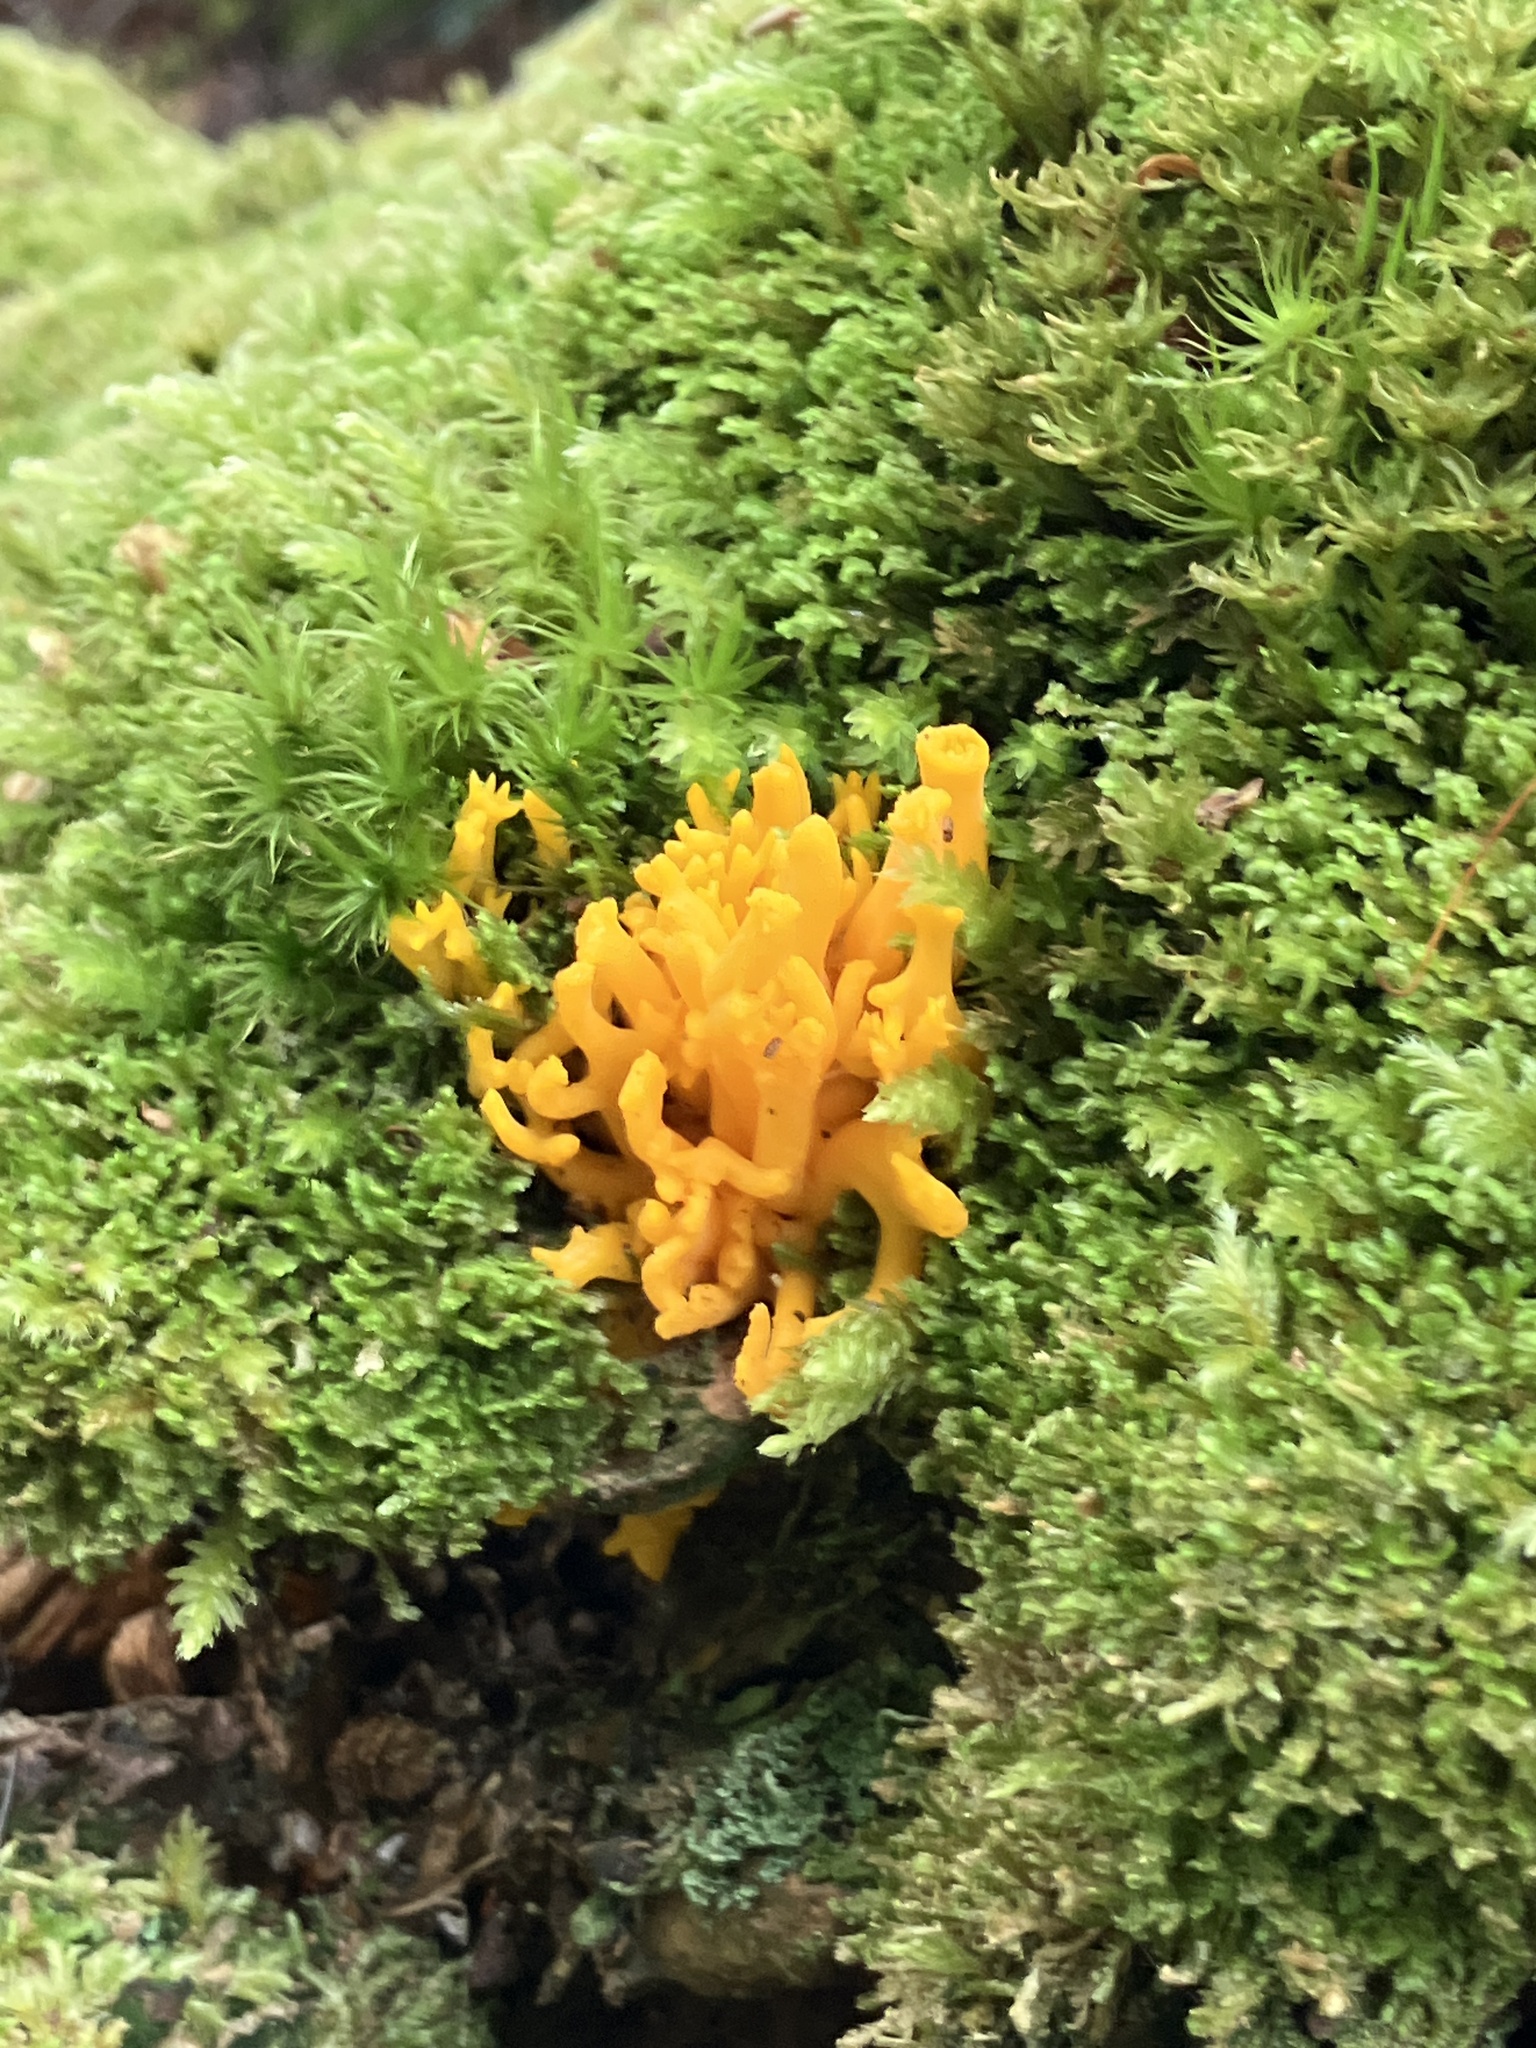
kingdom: Fungi
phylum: Basidiomycota
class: Dacrymycetes
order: Dacrymycetales
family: Dacrymycetaceae
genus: Calocera
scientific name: Calocera viscosa
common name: Yellow stagshorn
